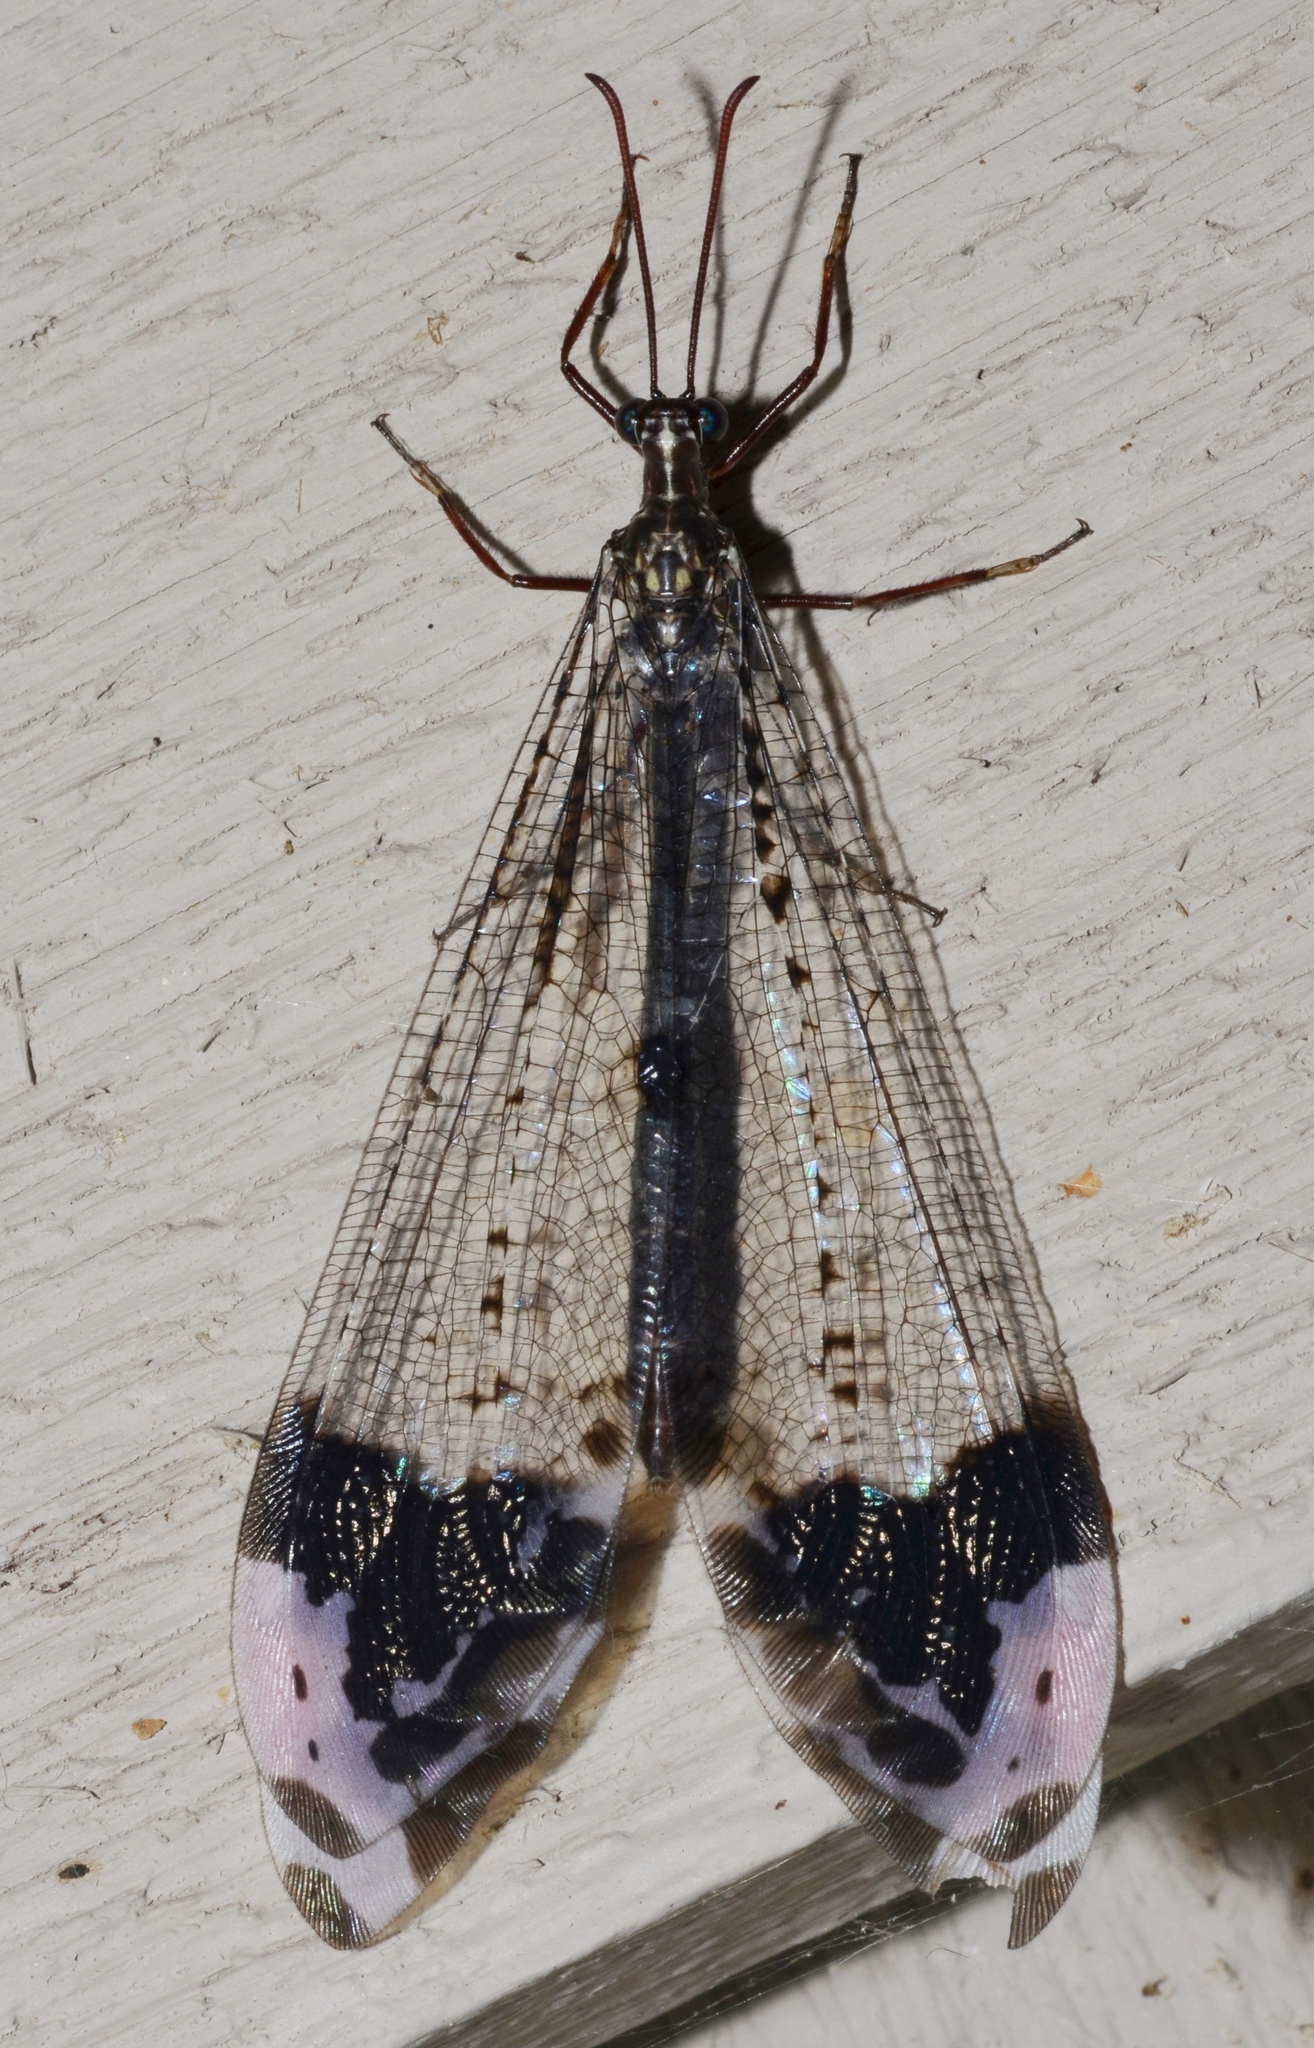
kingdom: Animalia
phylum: Arthropoda
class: Insecta
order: Neuroptera
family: Myrmeleontidae
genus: Glenurus
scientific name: Glenurus gratus
